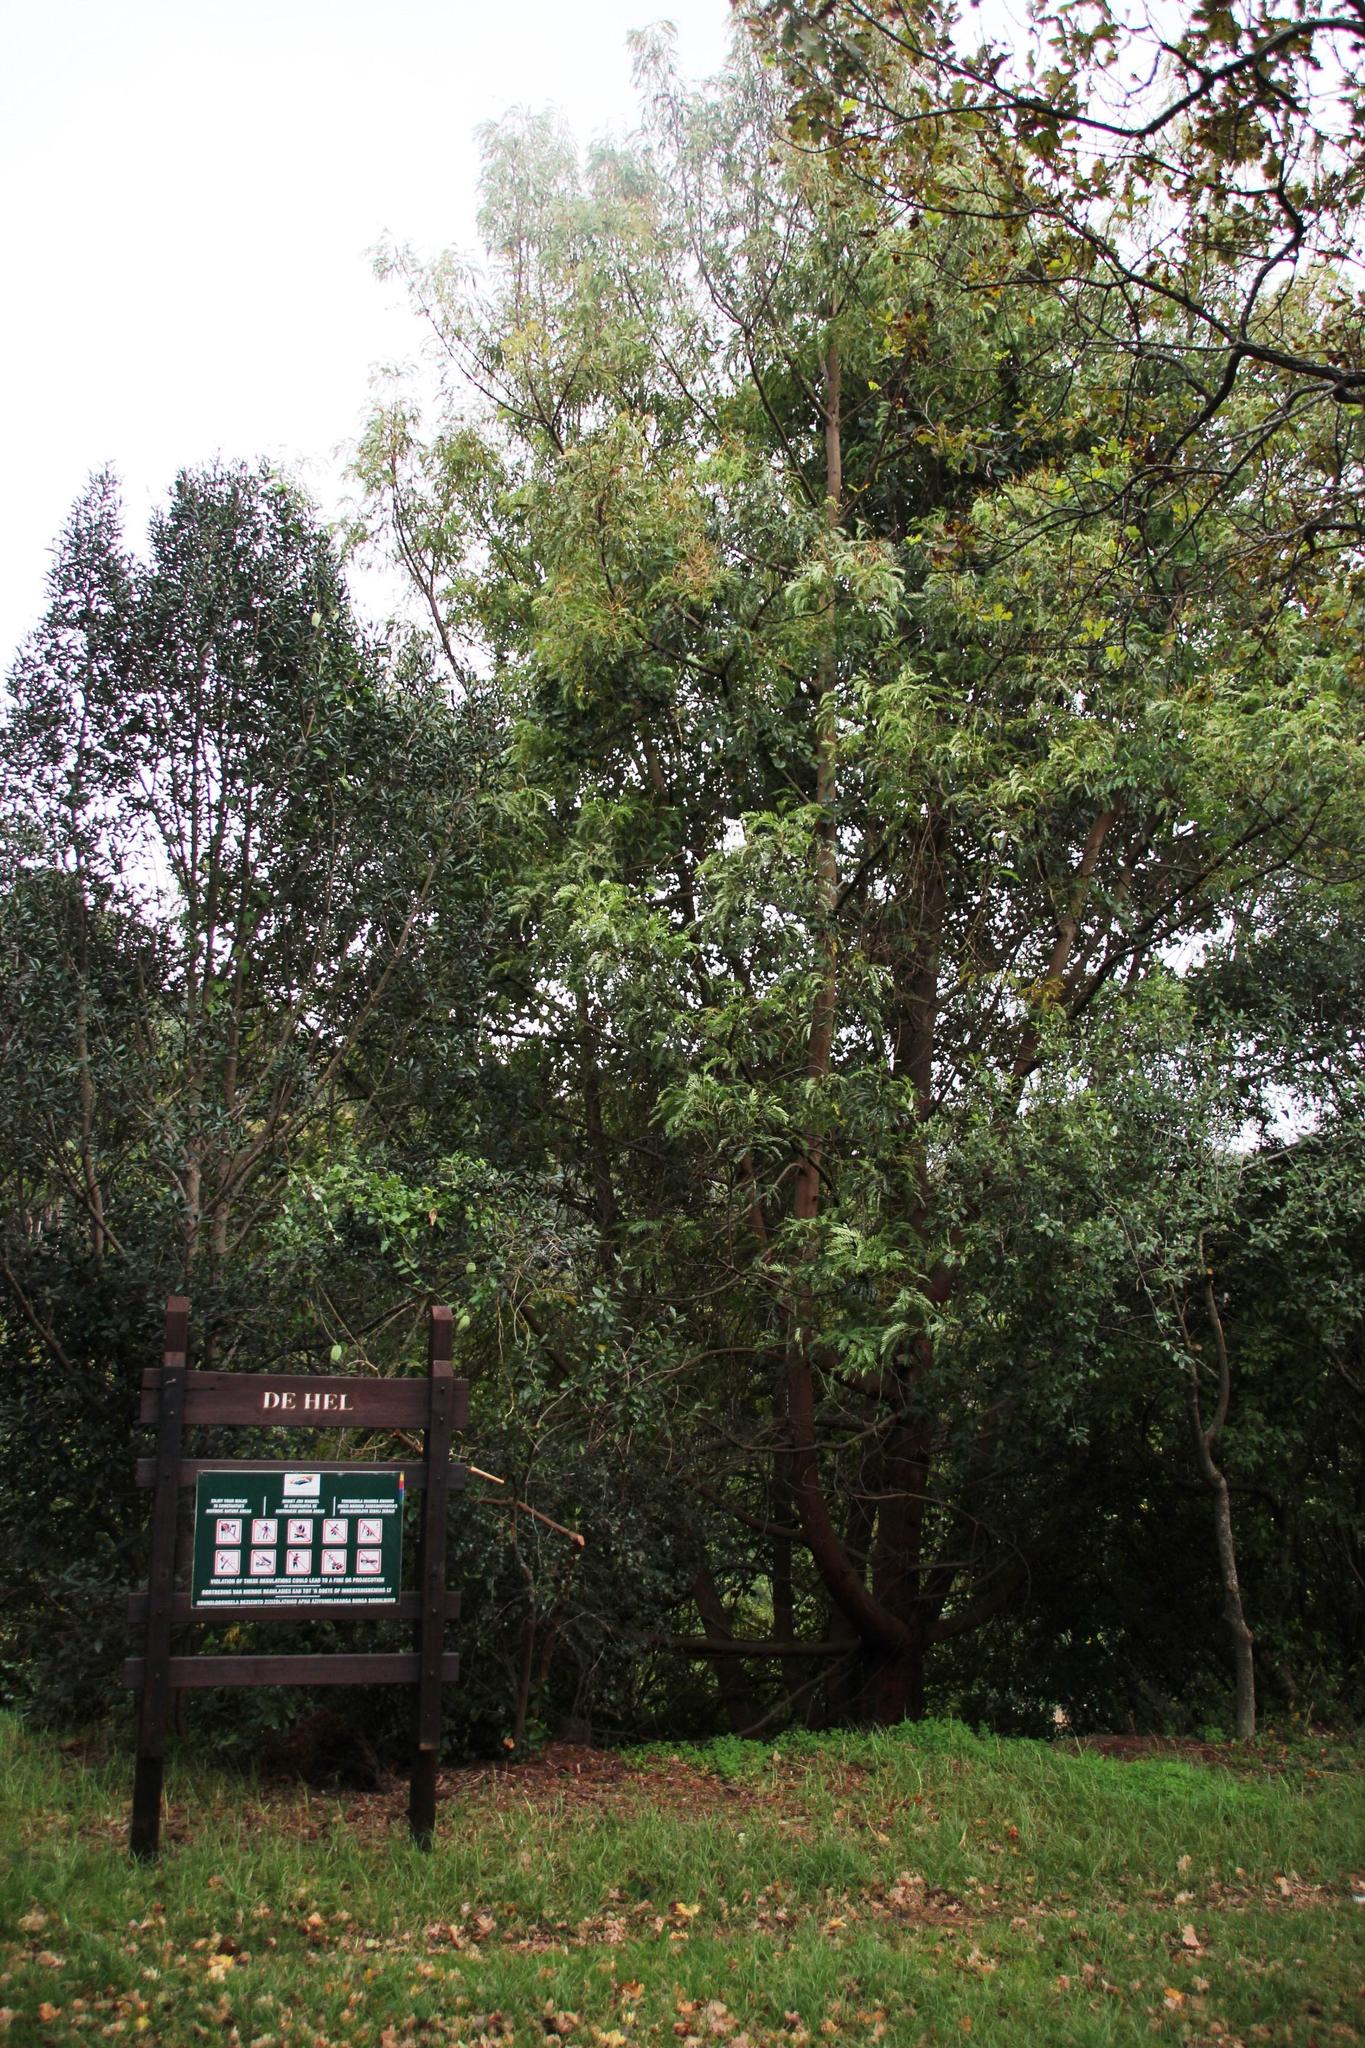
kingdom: Plantae
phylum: Tracheophyta
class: Magnoliopsida
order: Fabales
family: Fabaceae
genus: Acacia
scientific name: Acacia elata
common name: Cedar wattle
